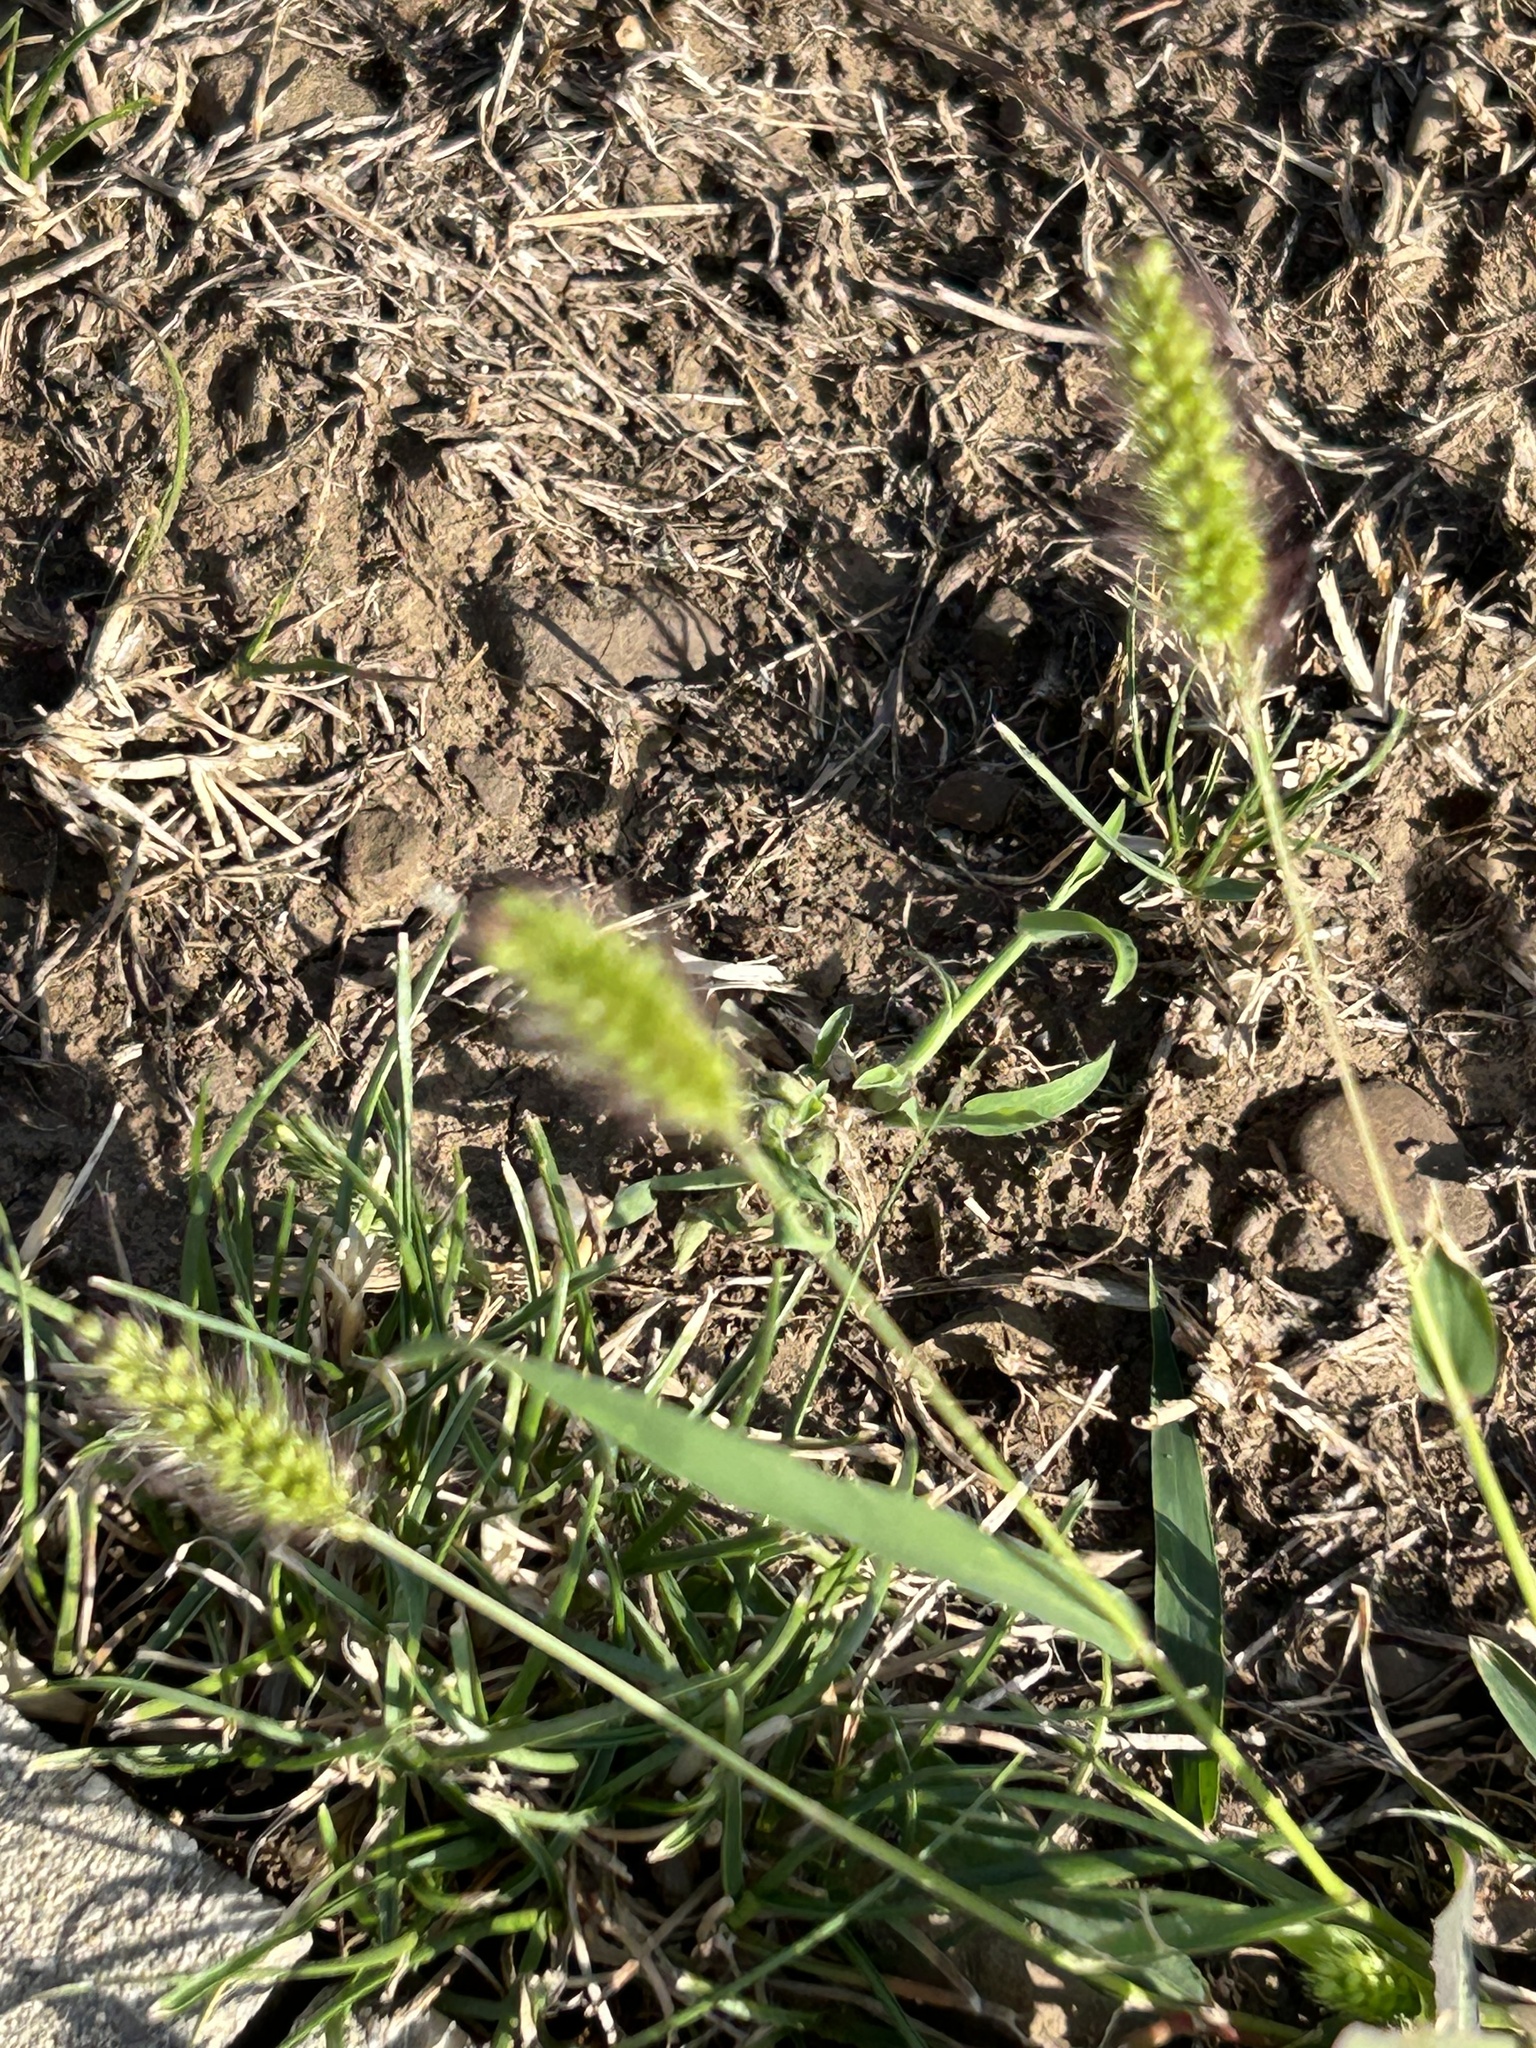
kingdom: Plantae
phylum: Tracheophyta
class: Liliopsida
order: Poales
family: Poaceae
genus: Setaria
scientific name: Setaria viridis
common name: Green bristlegrass
